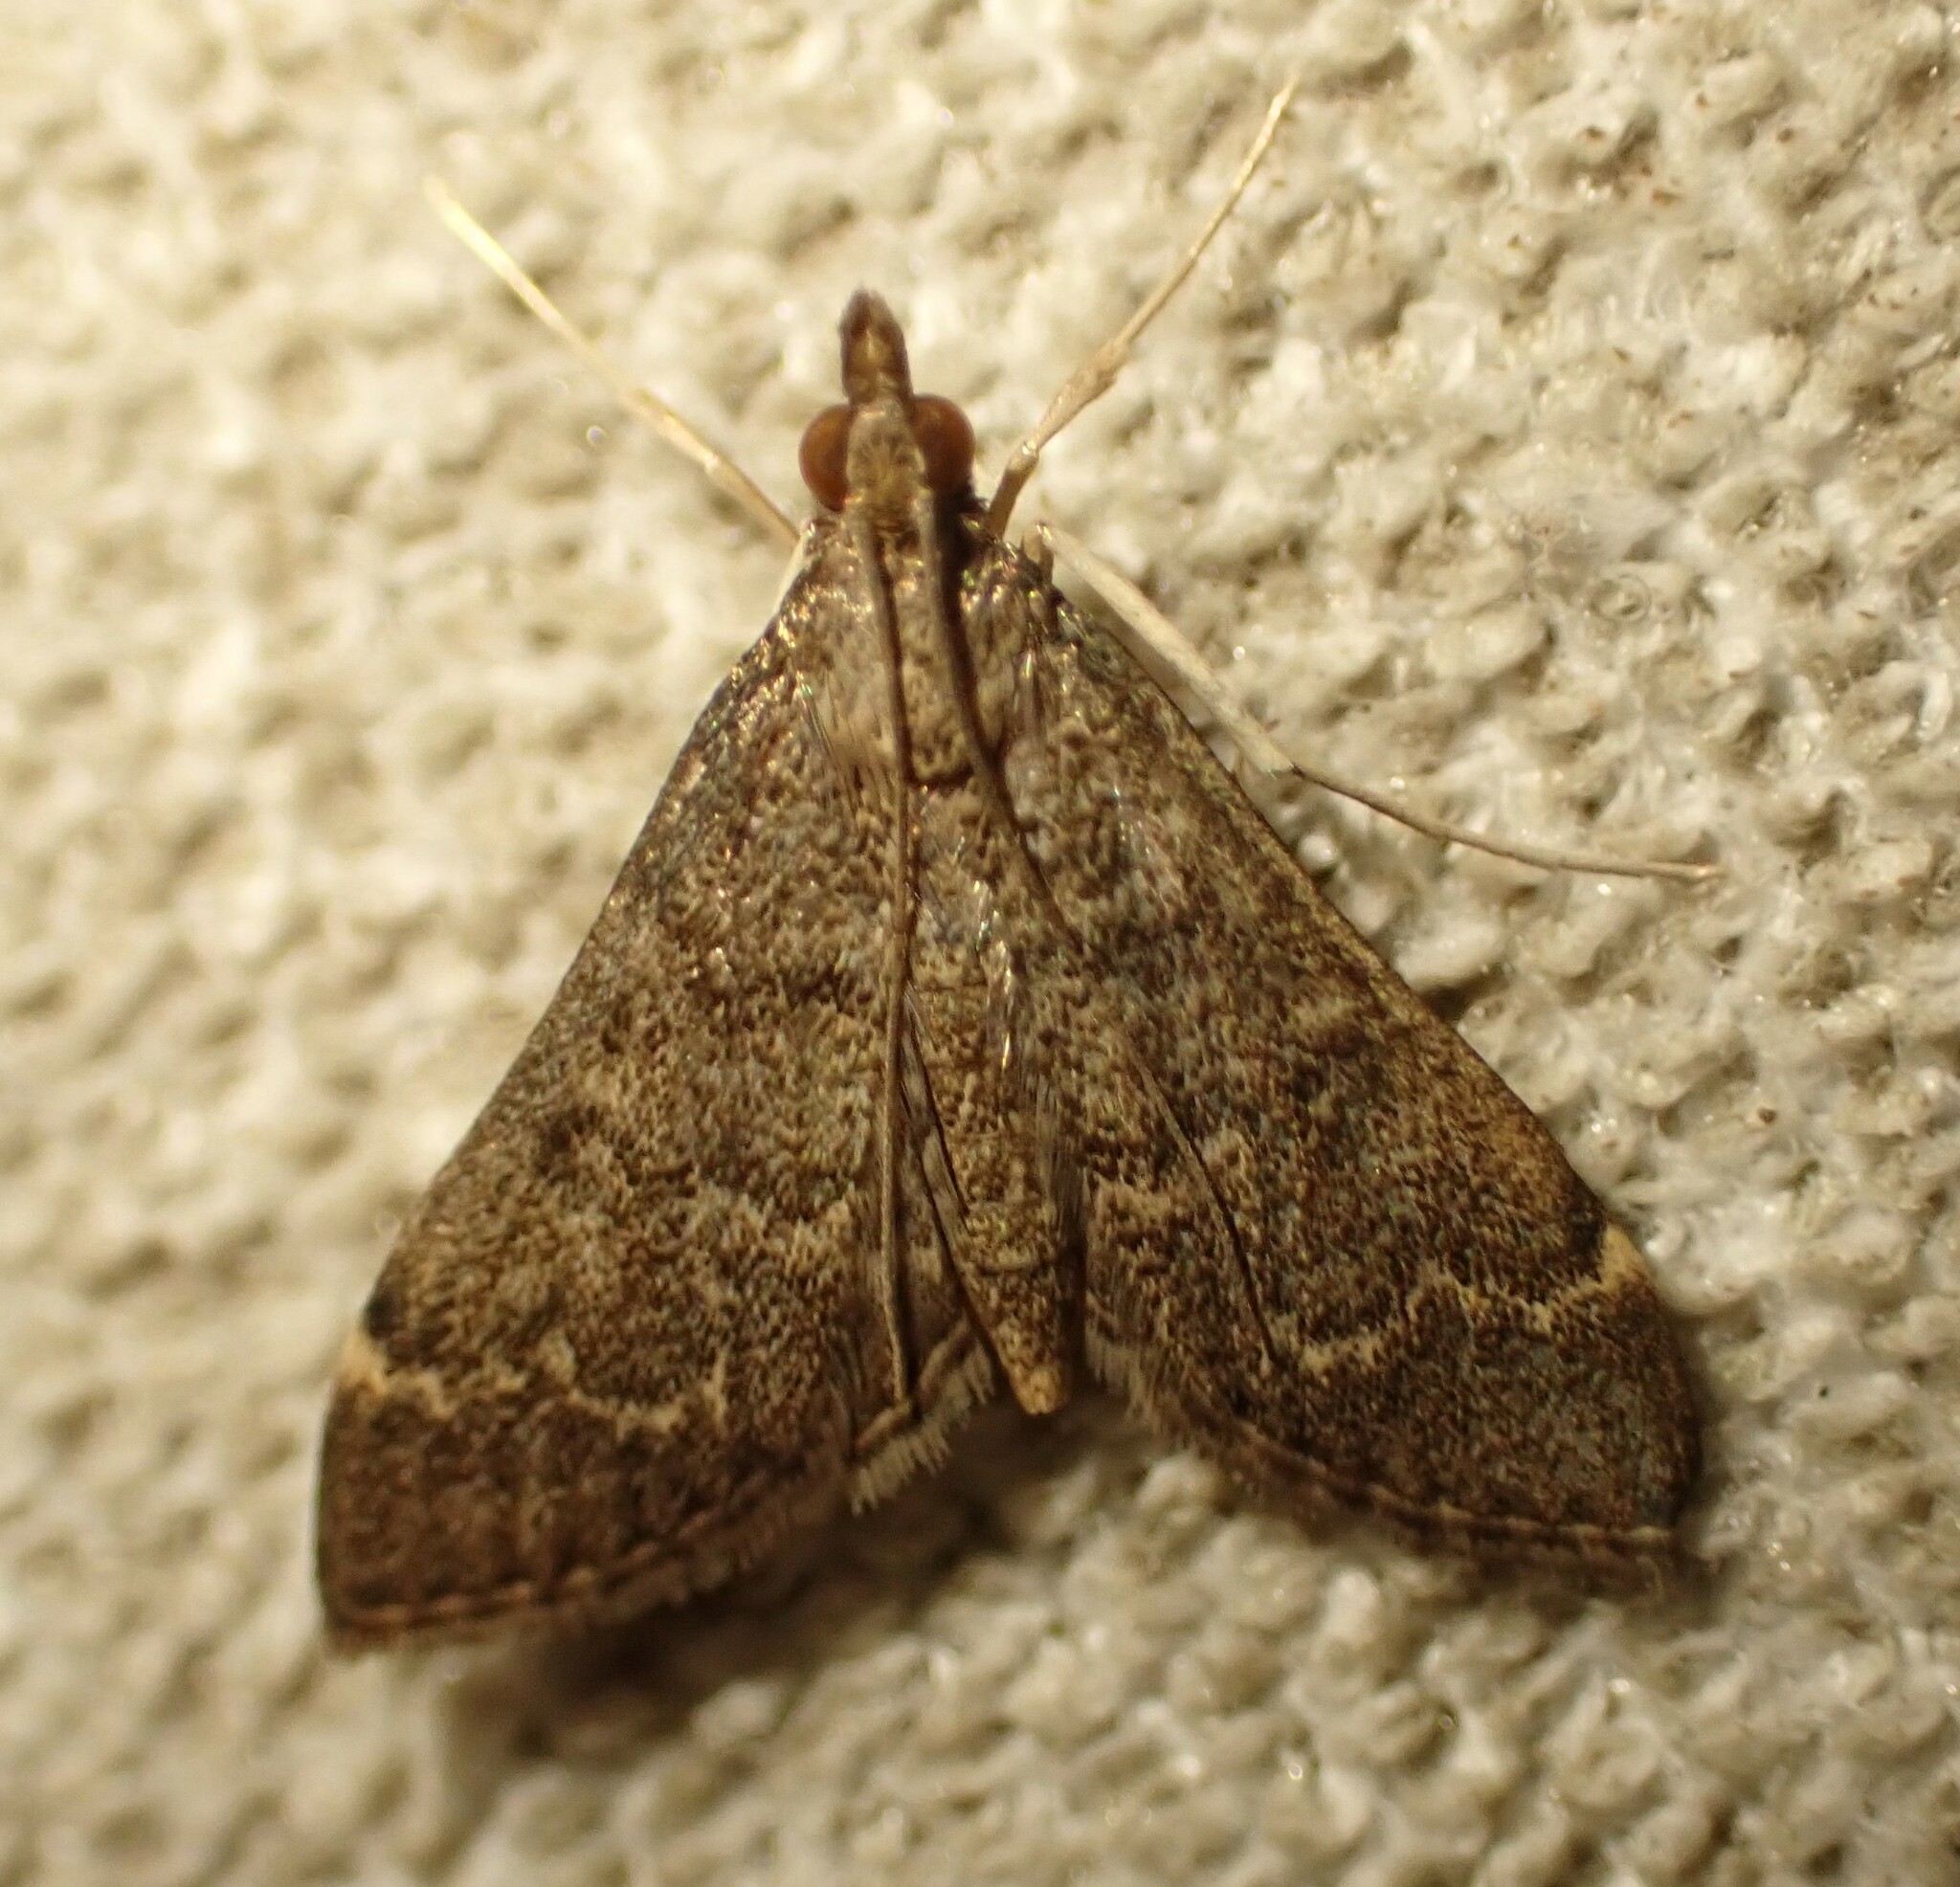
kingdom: Animalia
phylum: Arthropoda
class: Insecta
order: Lepidoptera
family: Crambidae
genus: Herpetogramma
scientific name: Herpetogramma phaeopteralis
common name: Dusky herpetogramma moth
